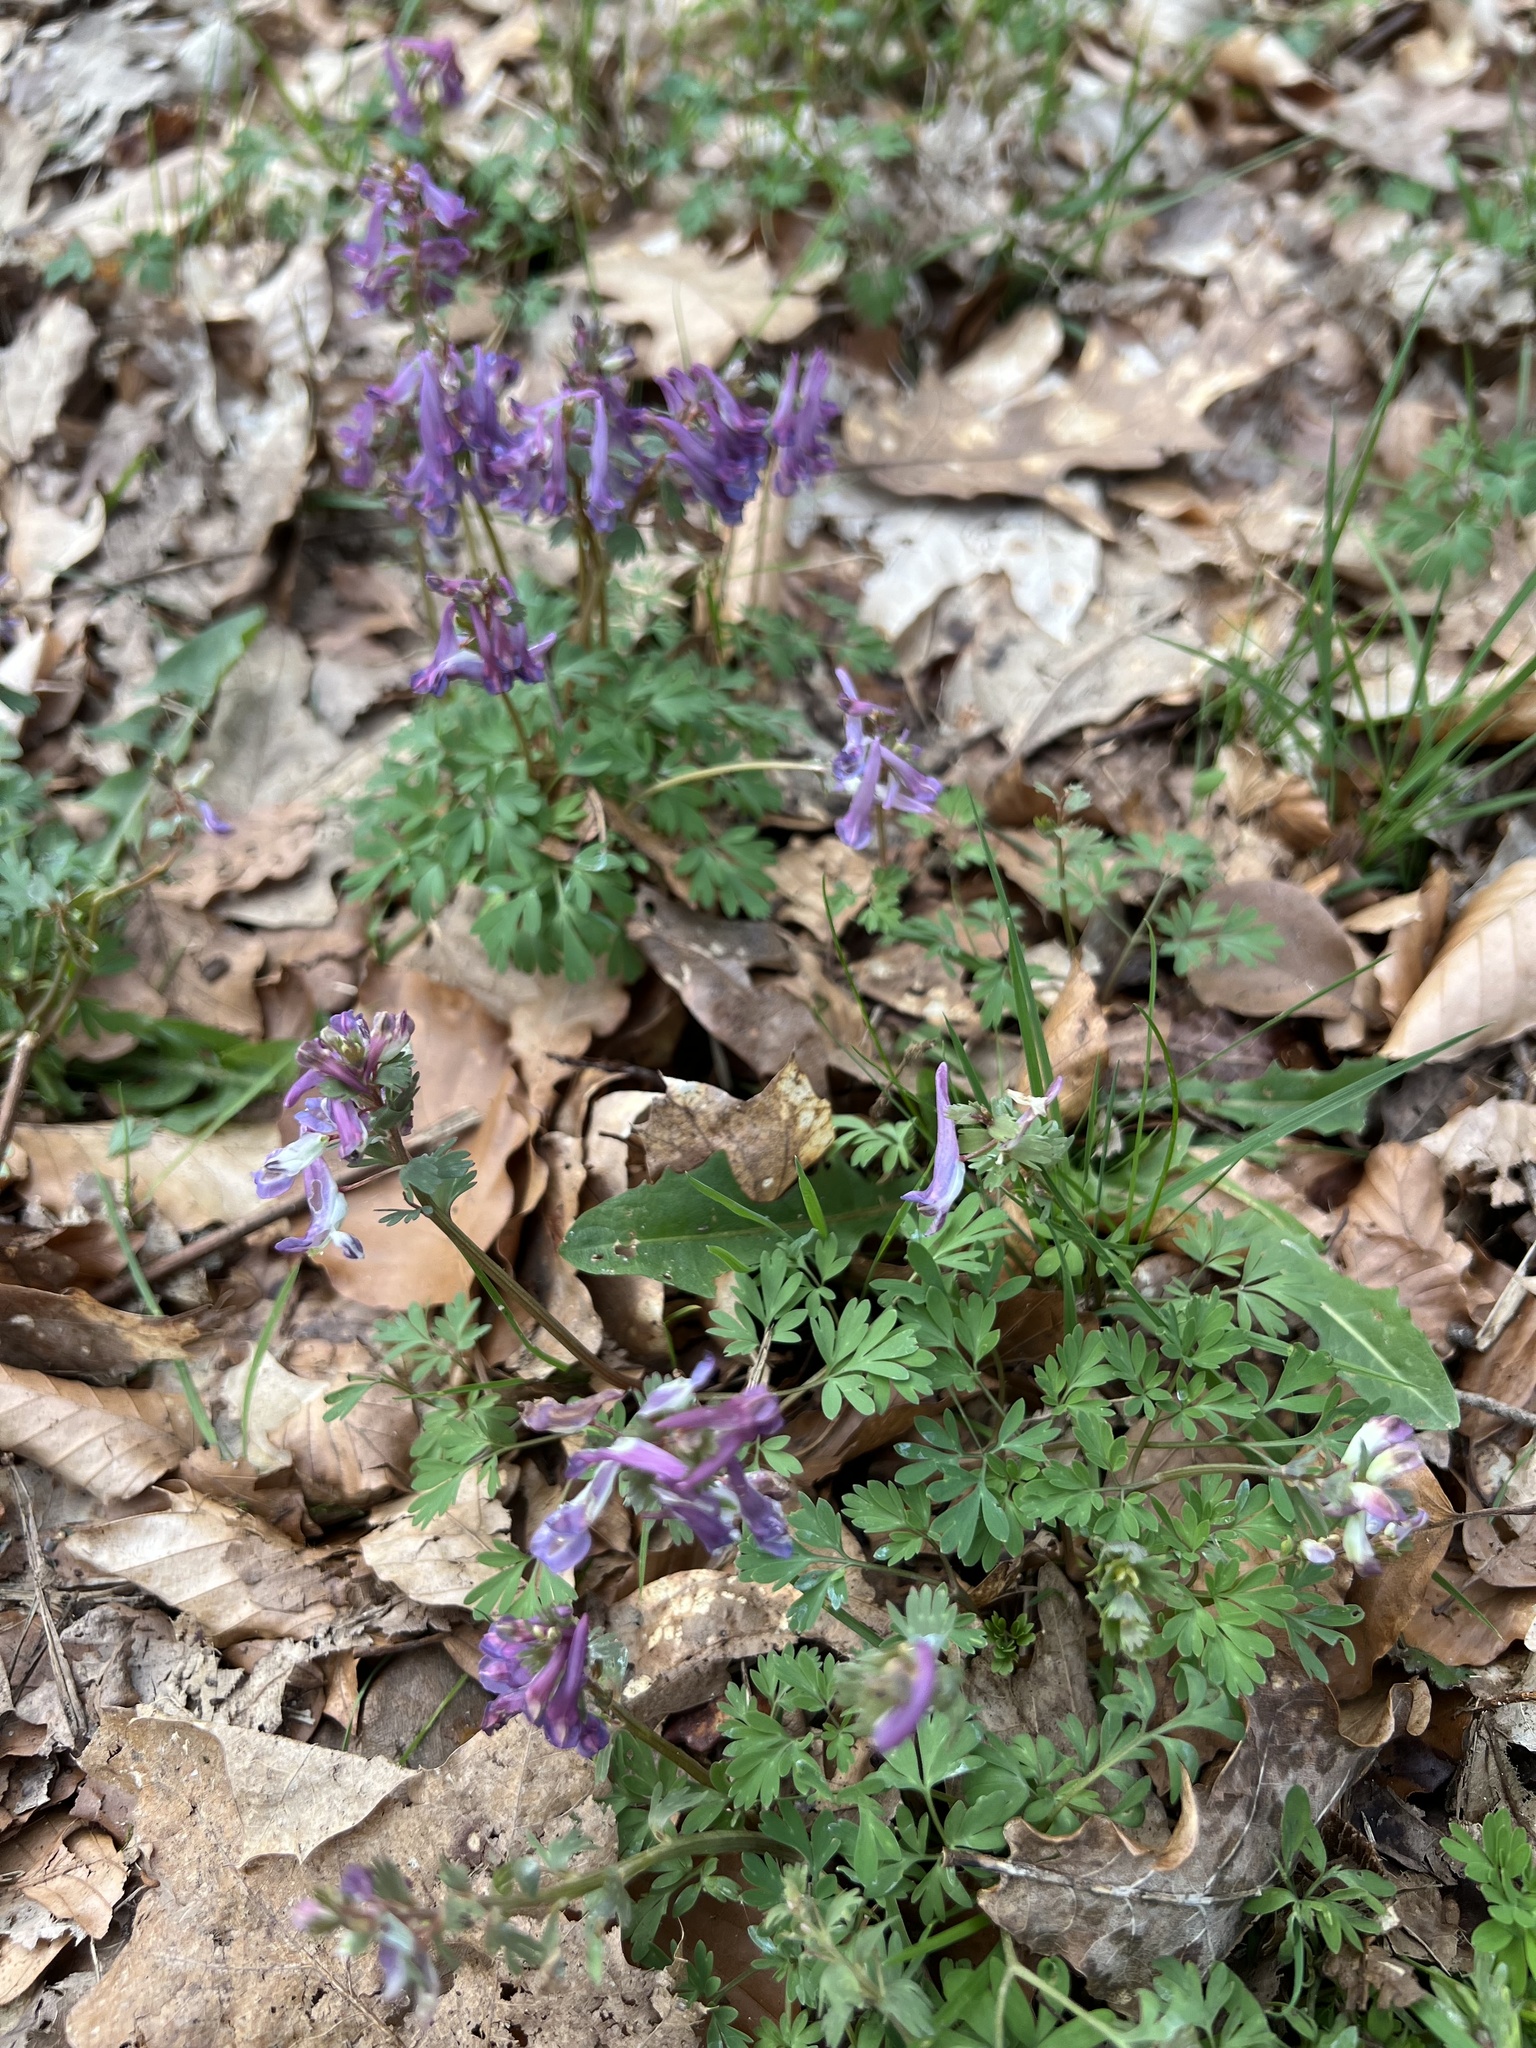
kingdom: Plantae
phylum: Tracheophyta
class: Magnoliopsida
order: Ranunculales
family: Papaveraceae
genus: Corydalis
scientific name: Corydalis solida
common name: Bird-in-a-bush
